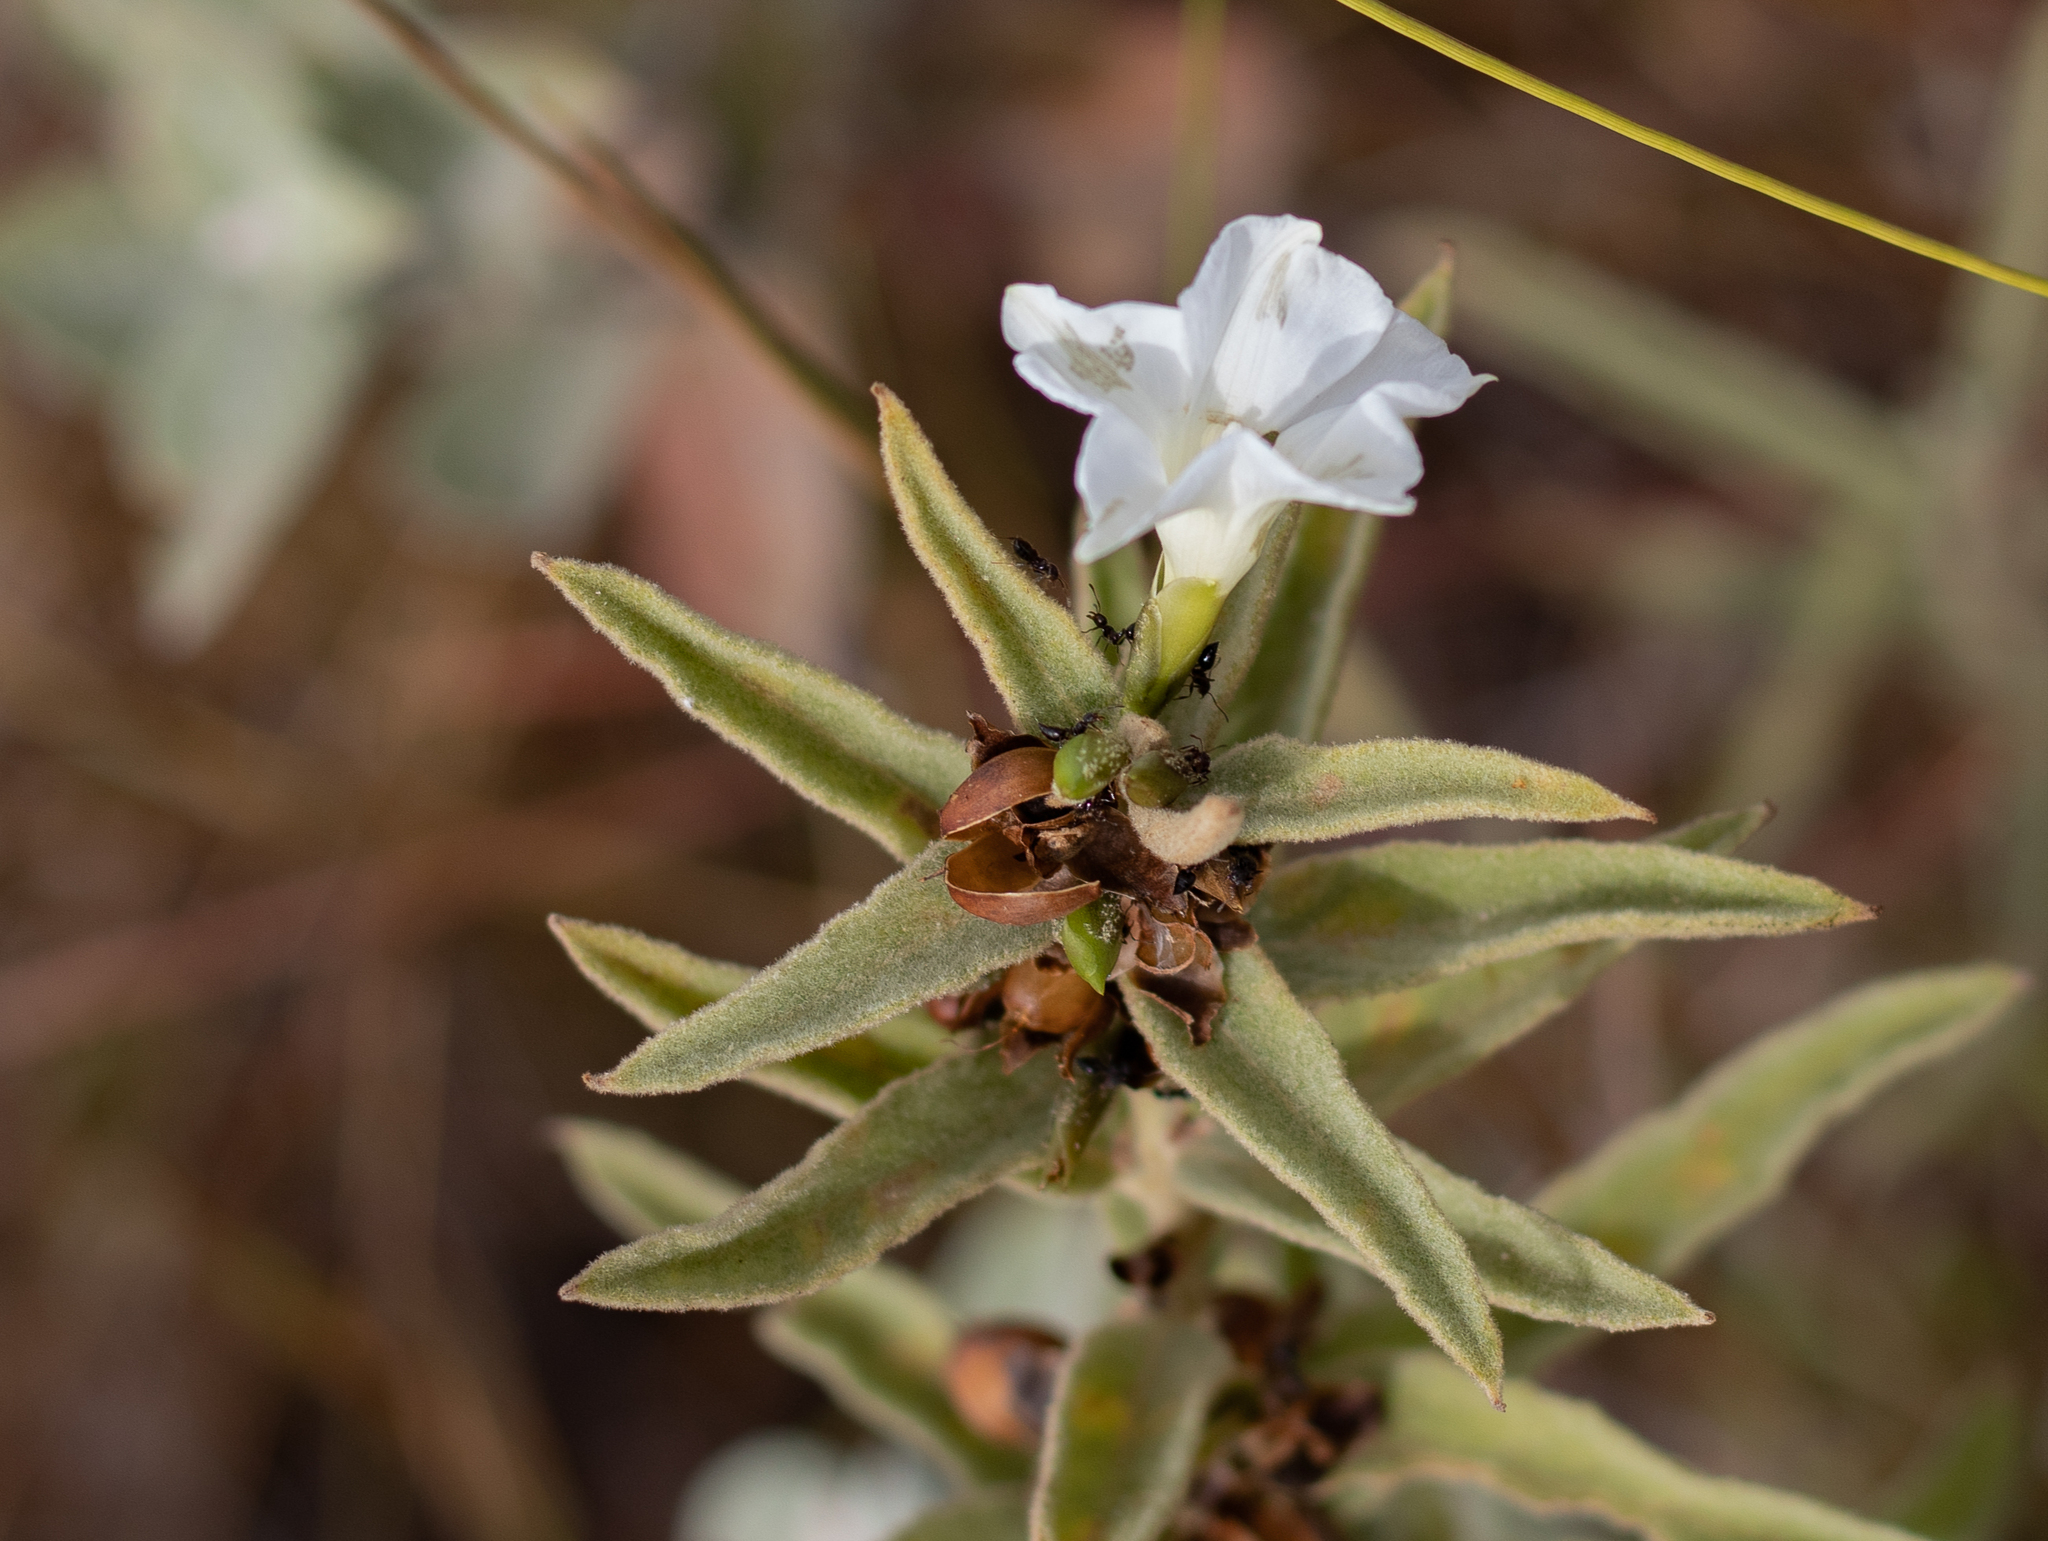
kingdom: Plantae
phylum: Tracheophyta
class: Magnoliopsida
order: Solanales
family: Convolvulaceae
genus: Distimake
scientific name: Distimake tomentosus
